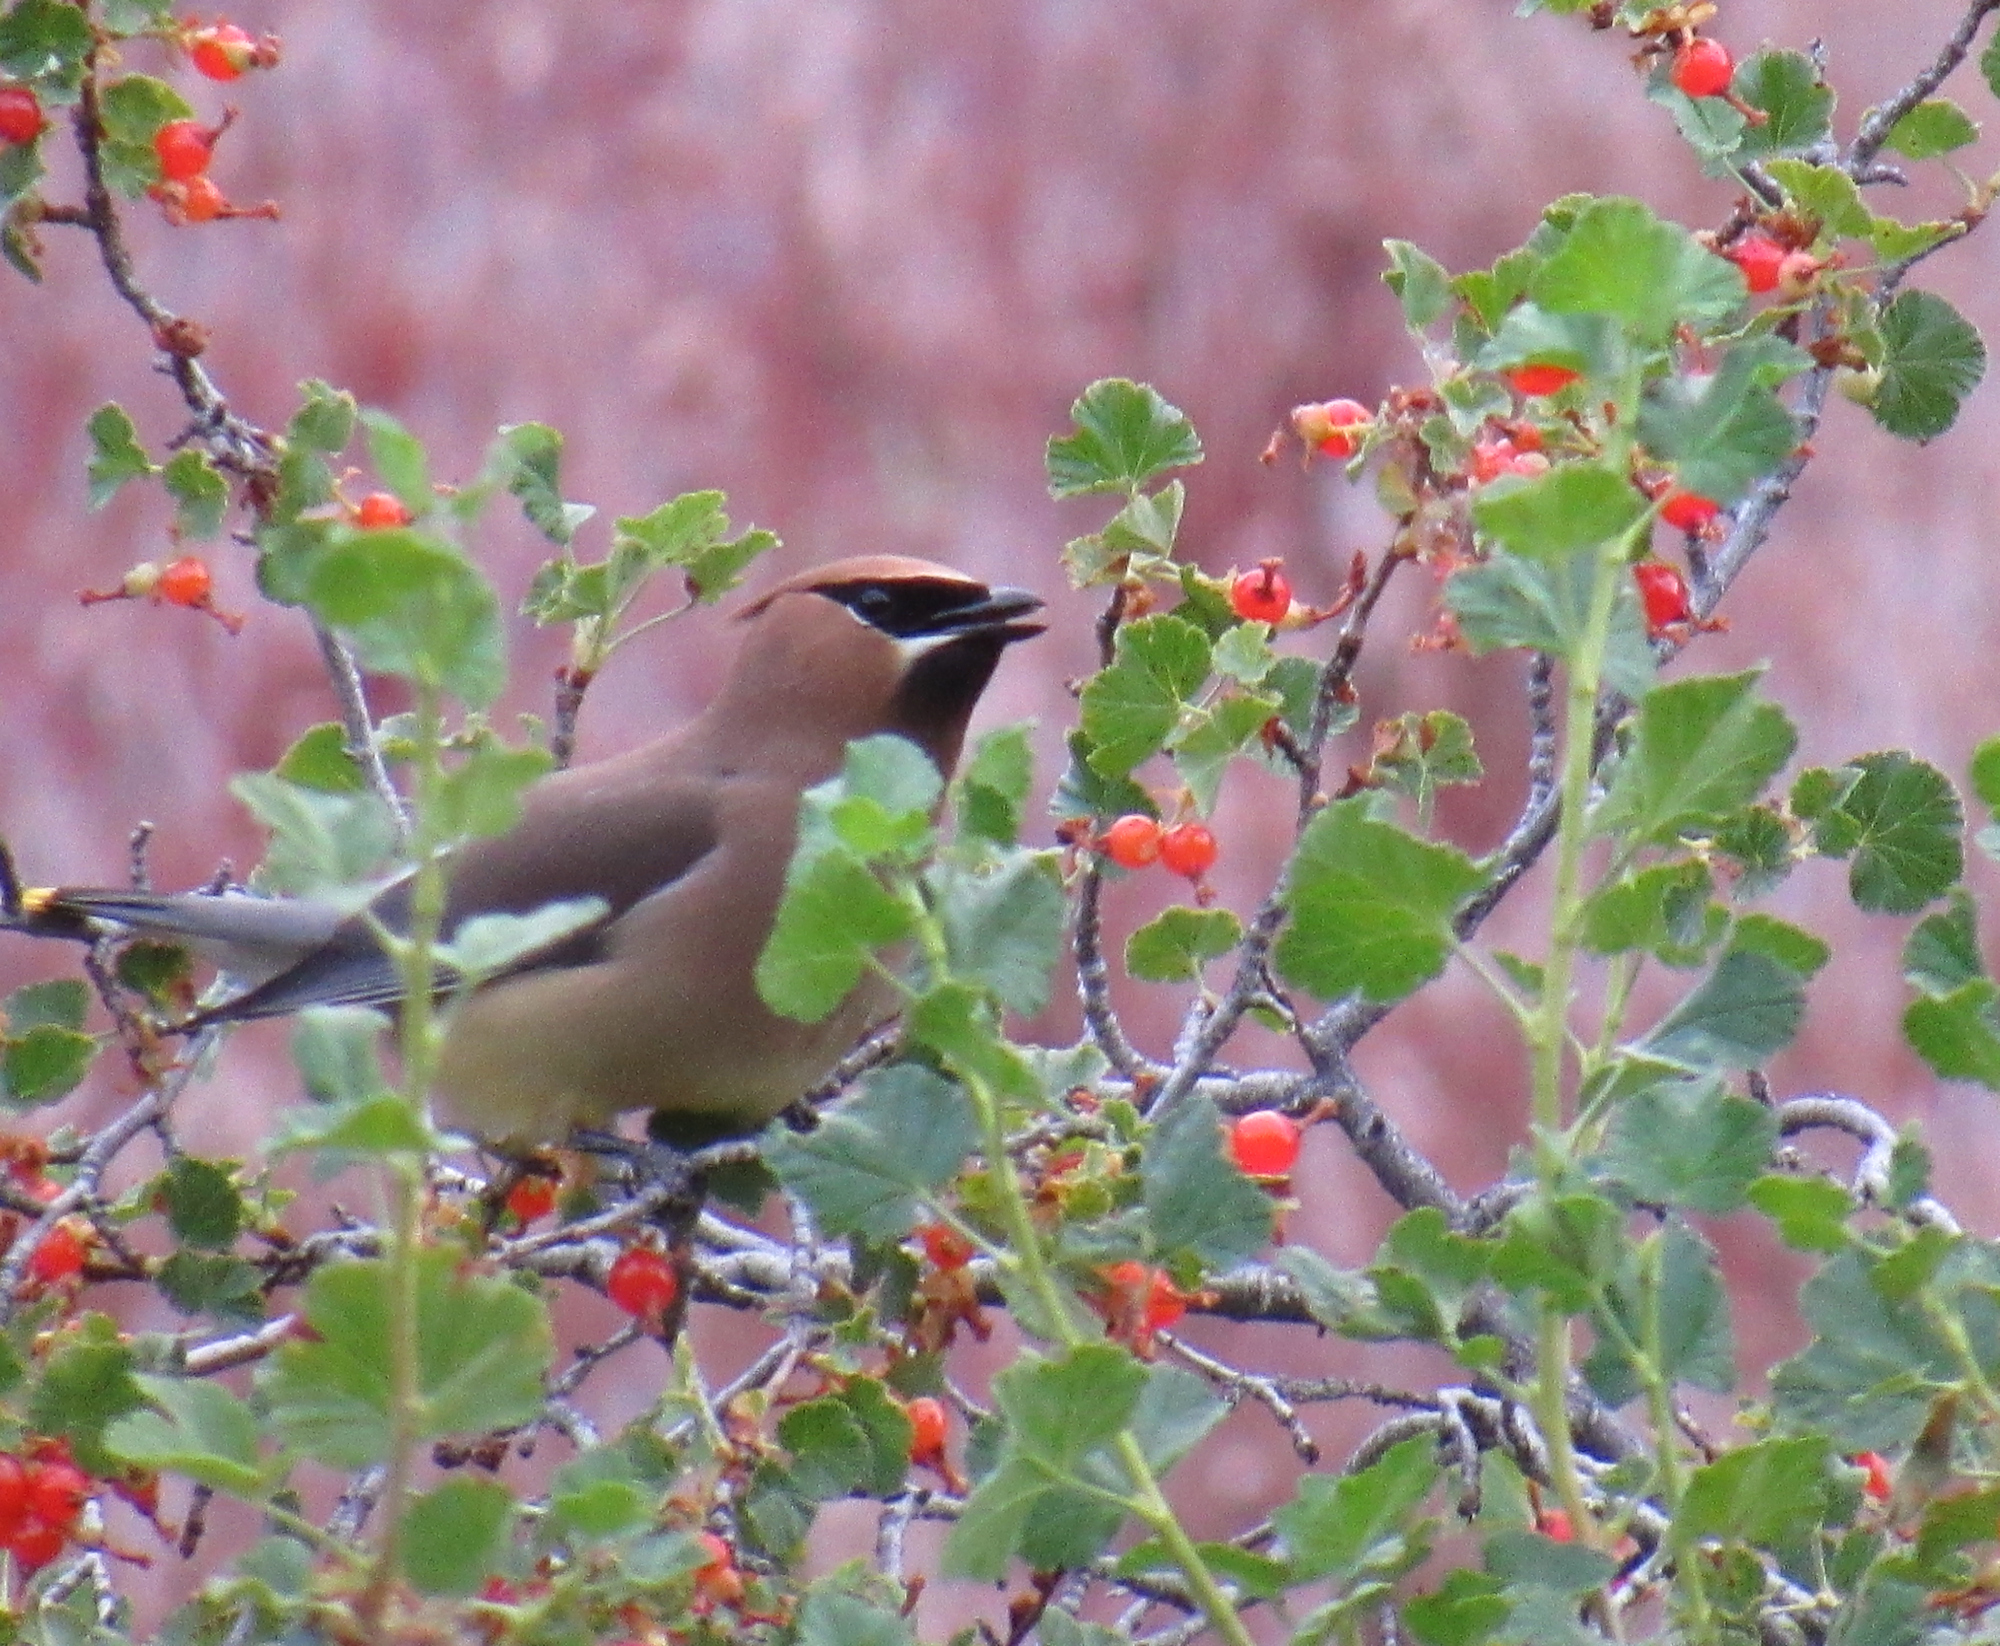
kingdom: Animalia
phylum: Chordata
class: Aves
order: Passeriformes
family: Bombycillidae
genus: Bombycilla
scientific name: Bombycilla cedrorum
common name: Cedar waxwing
